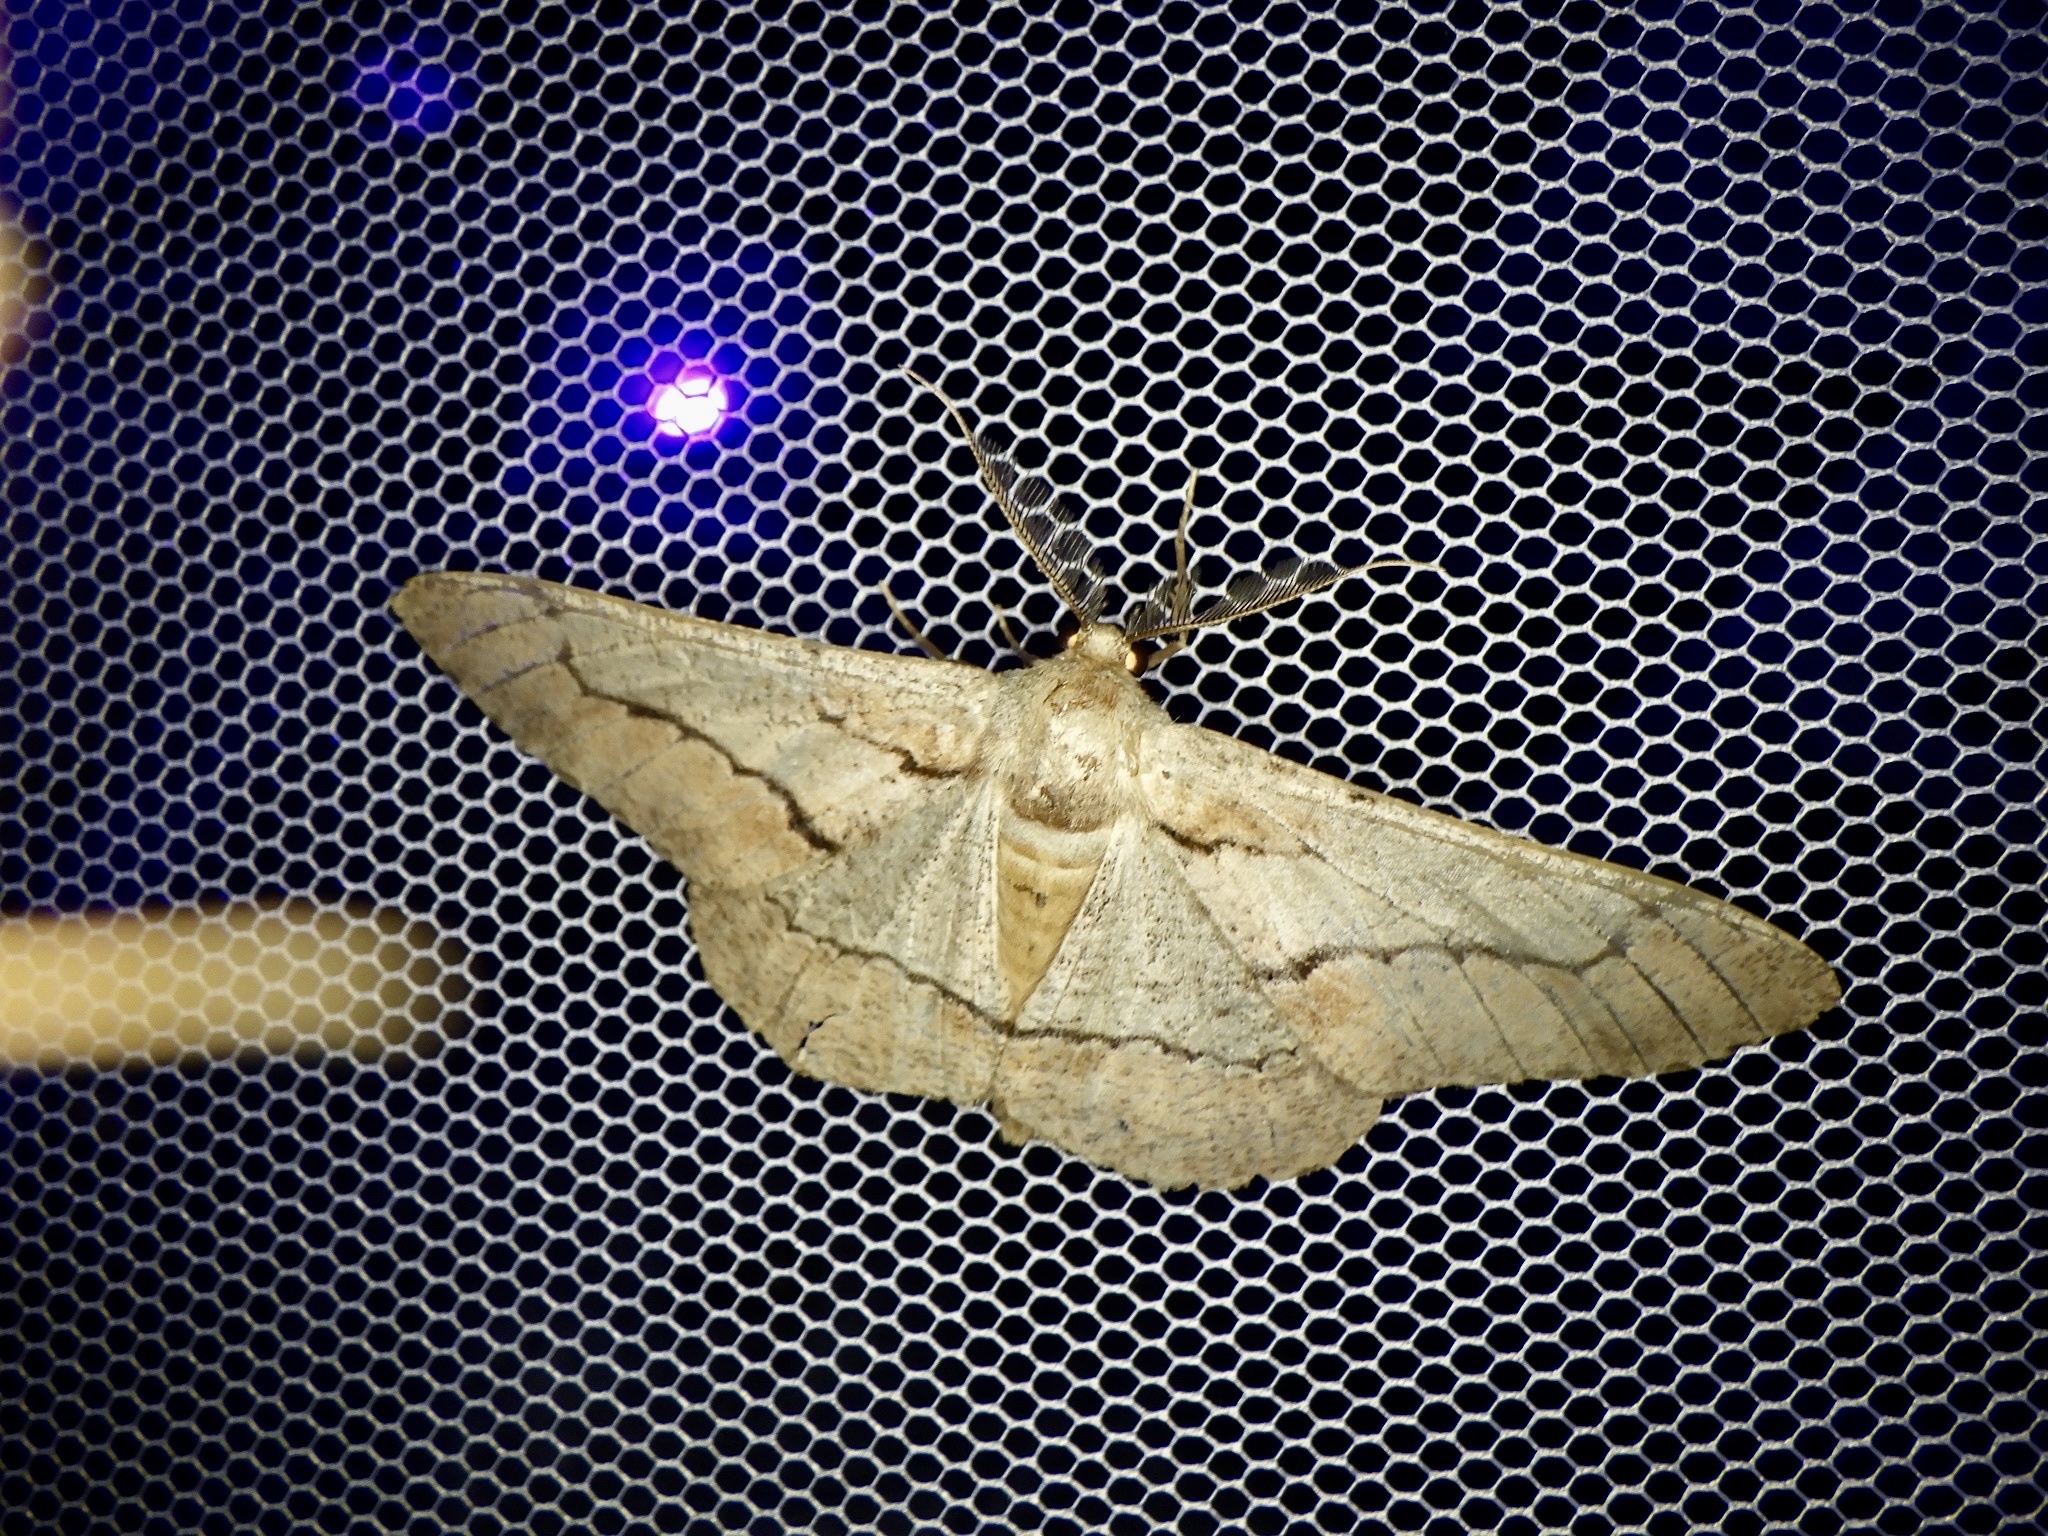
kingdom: Animalia
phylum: Arthropoda
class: Insecta
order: Lepidoptera
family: Geometridae
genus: Phthonosema
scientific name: Phthonosema tendinosaria
